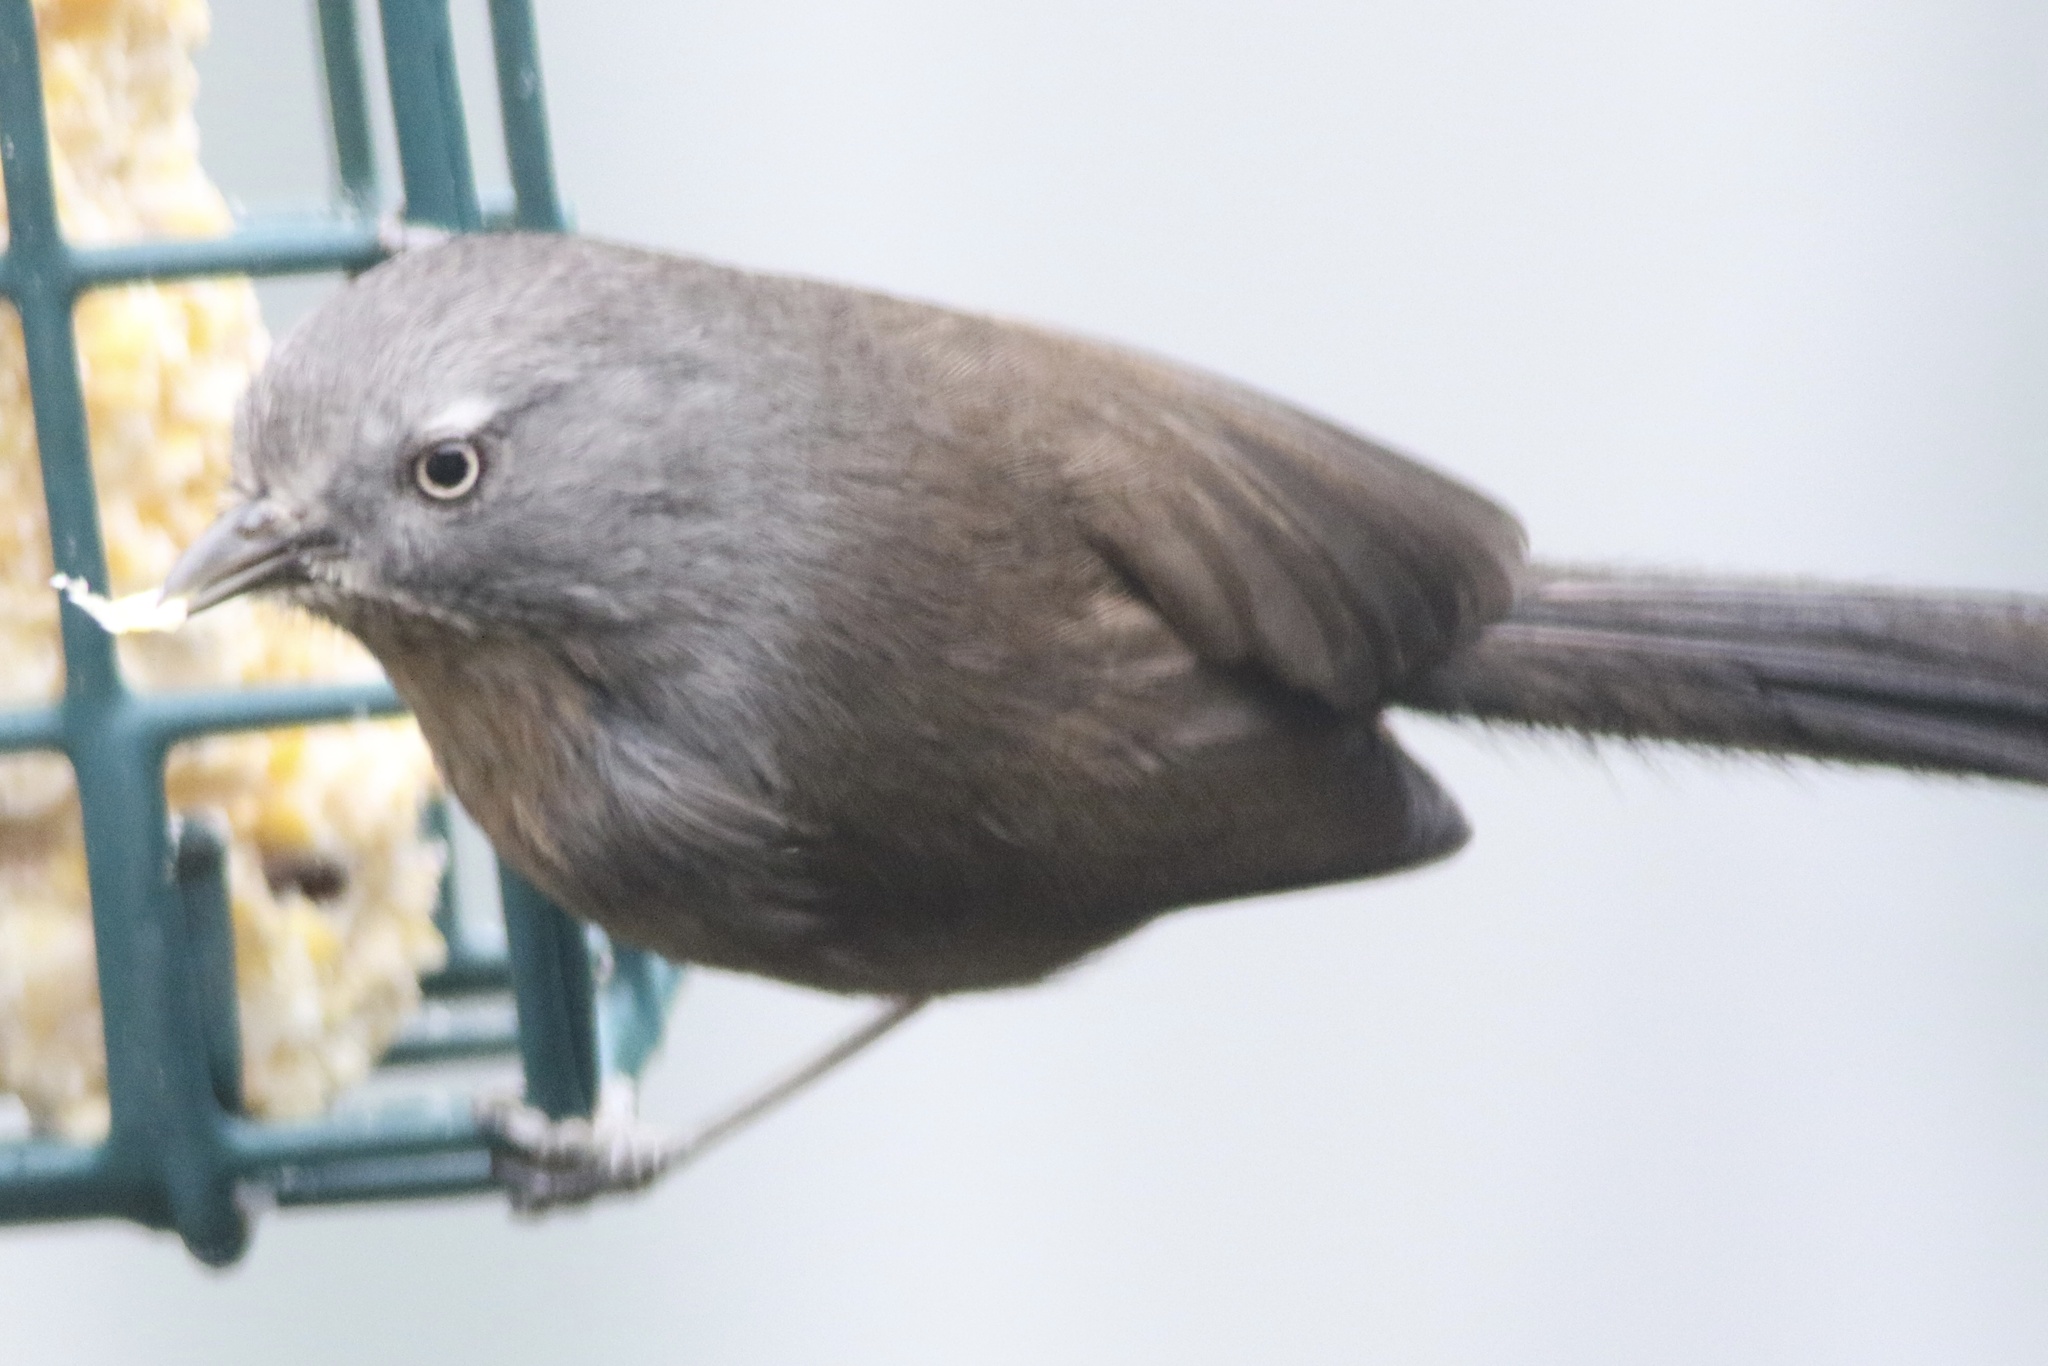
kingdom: Animalia
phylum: Chordata
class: Aves
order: Passeriformes
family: Sylviidae
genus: Chamaea
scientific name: Chamaea fasciata
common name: Wrentit
